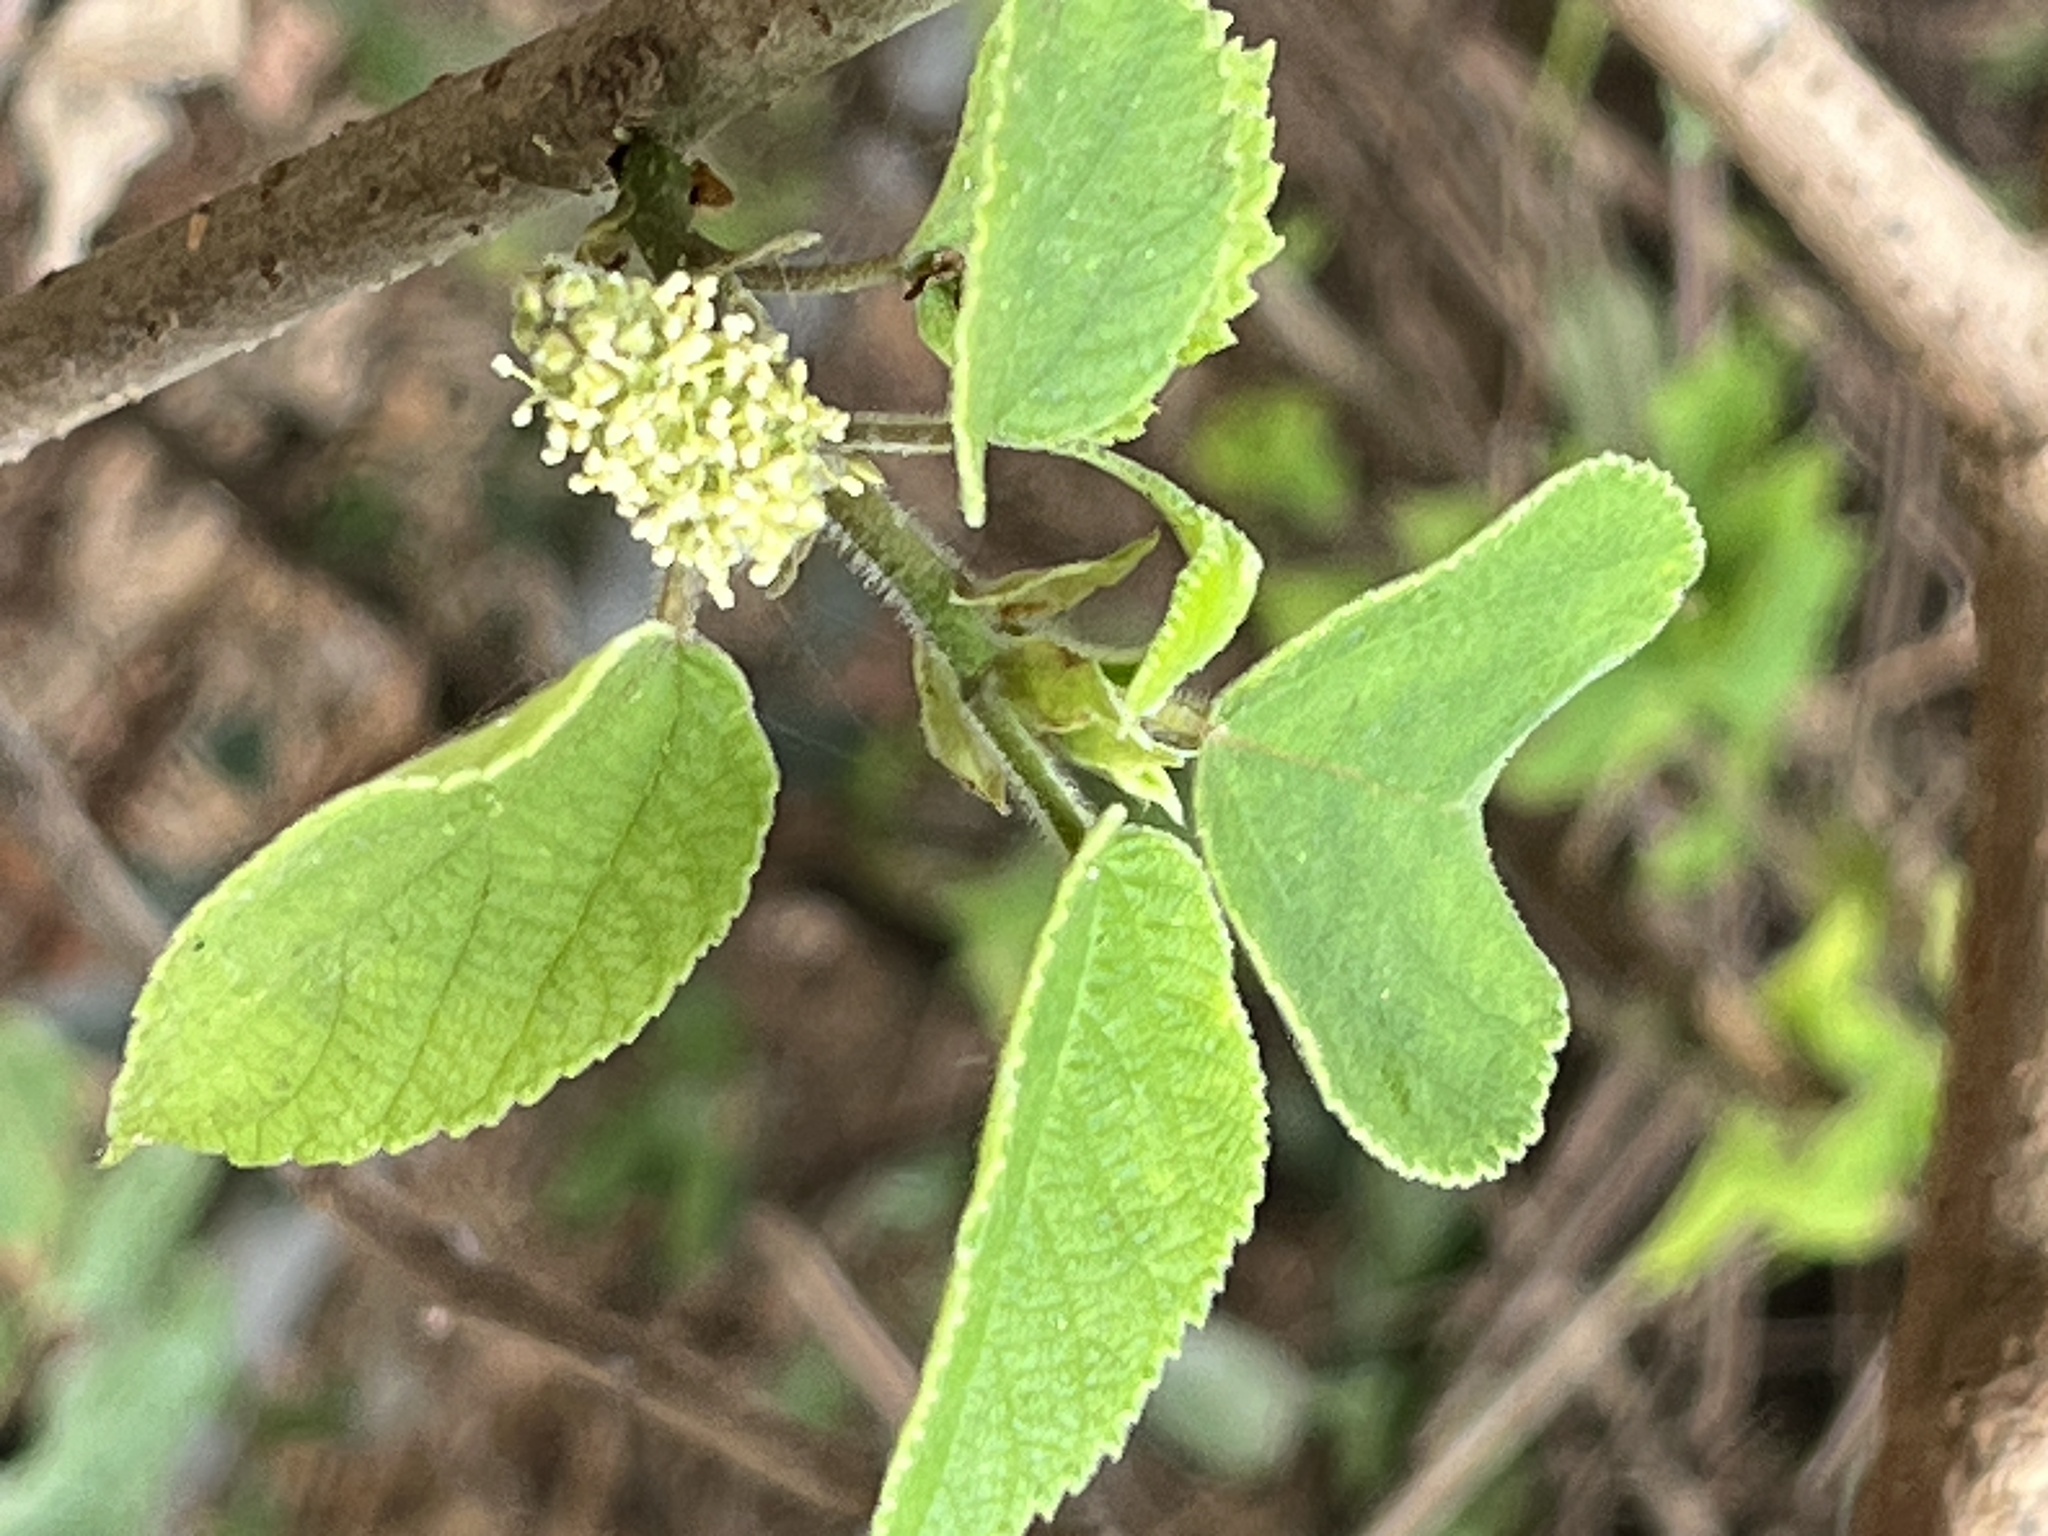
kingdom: Plantae
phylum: Tracheophyta
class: Magnoliopsida
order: Rosales
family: Moraceae
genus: Broussonetia
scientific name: Broussonetia papyrifera
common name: Paper mulberry
